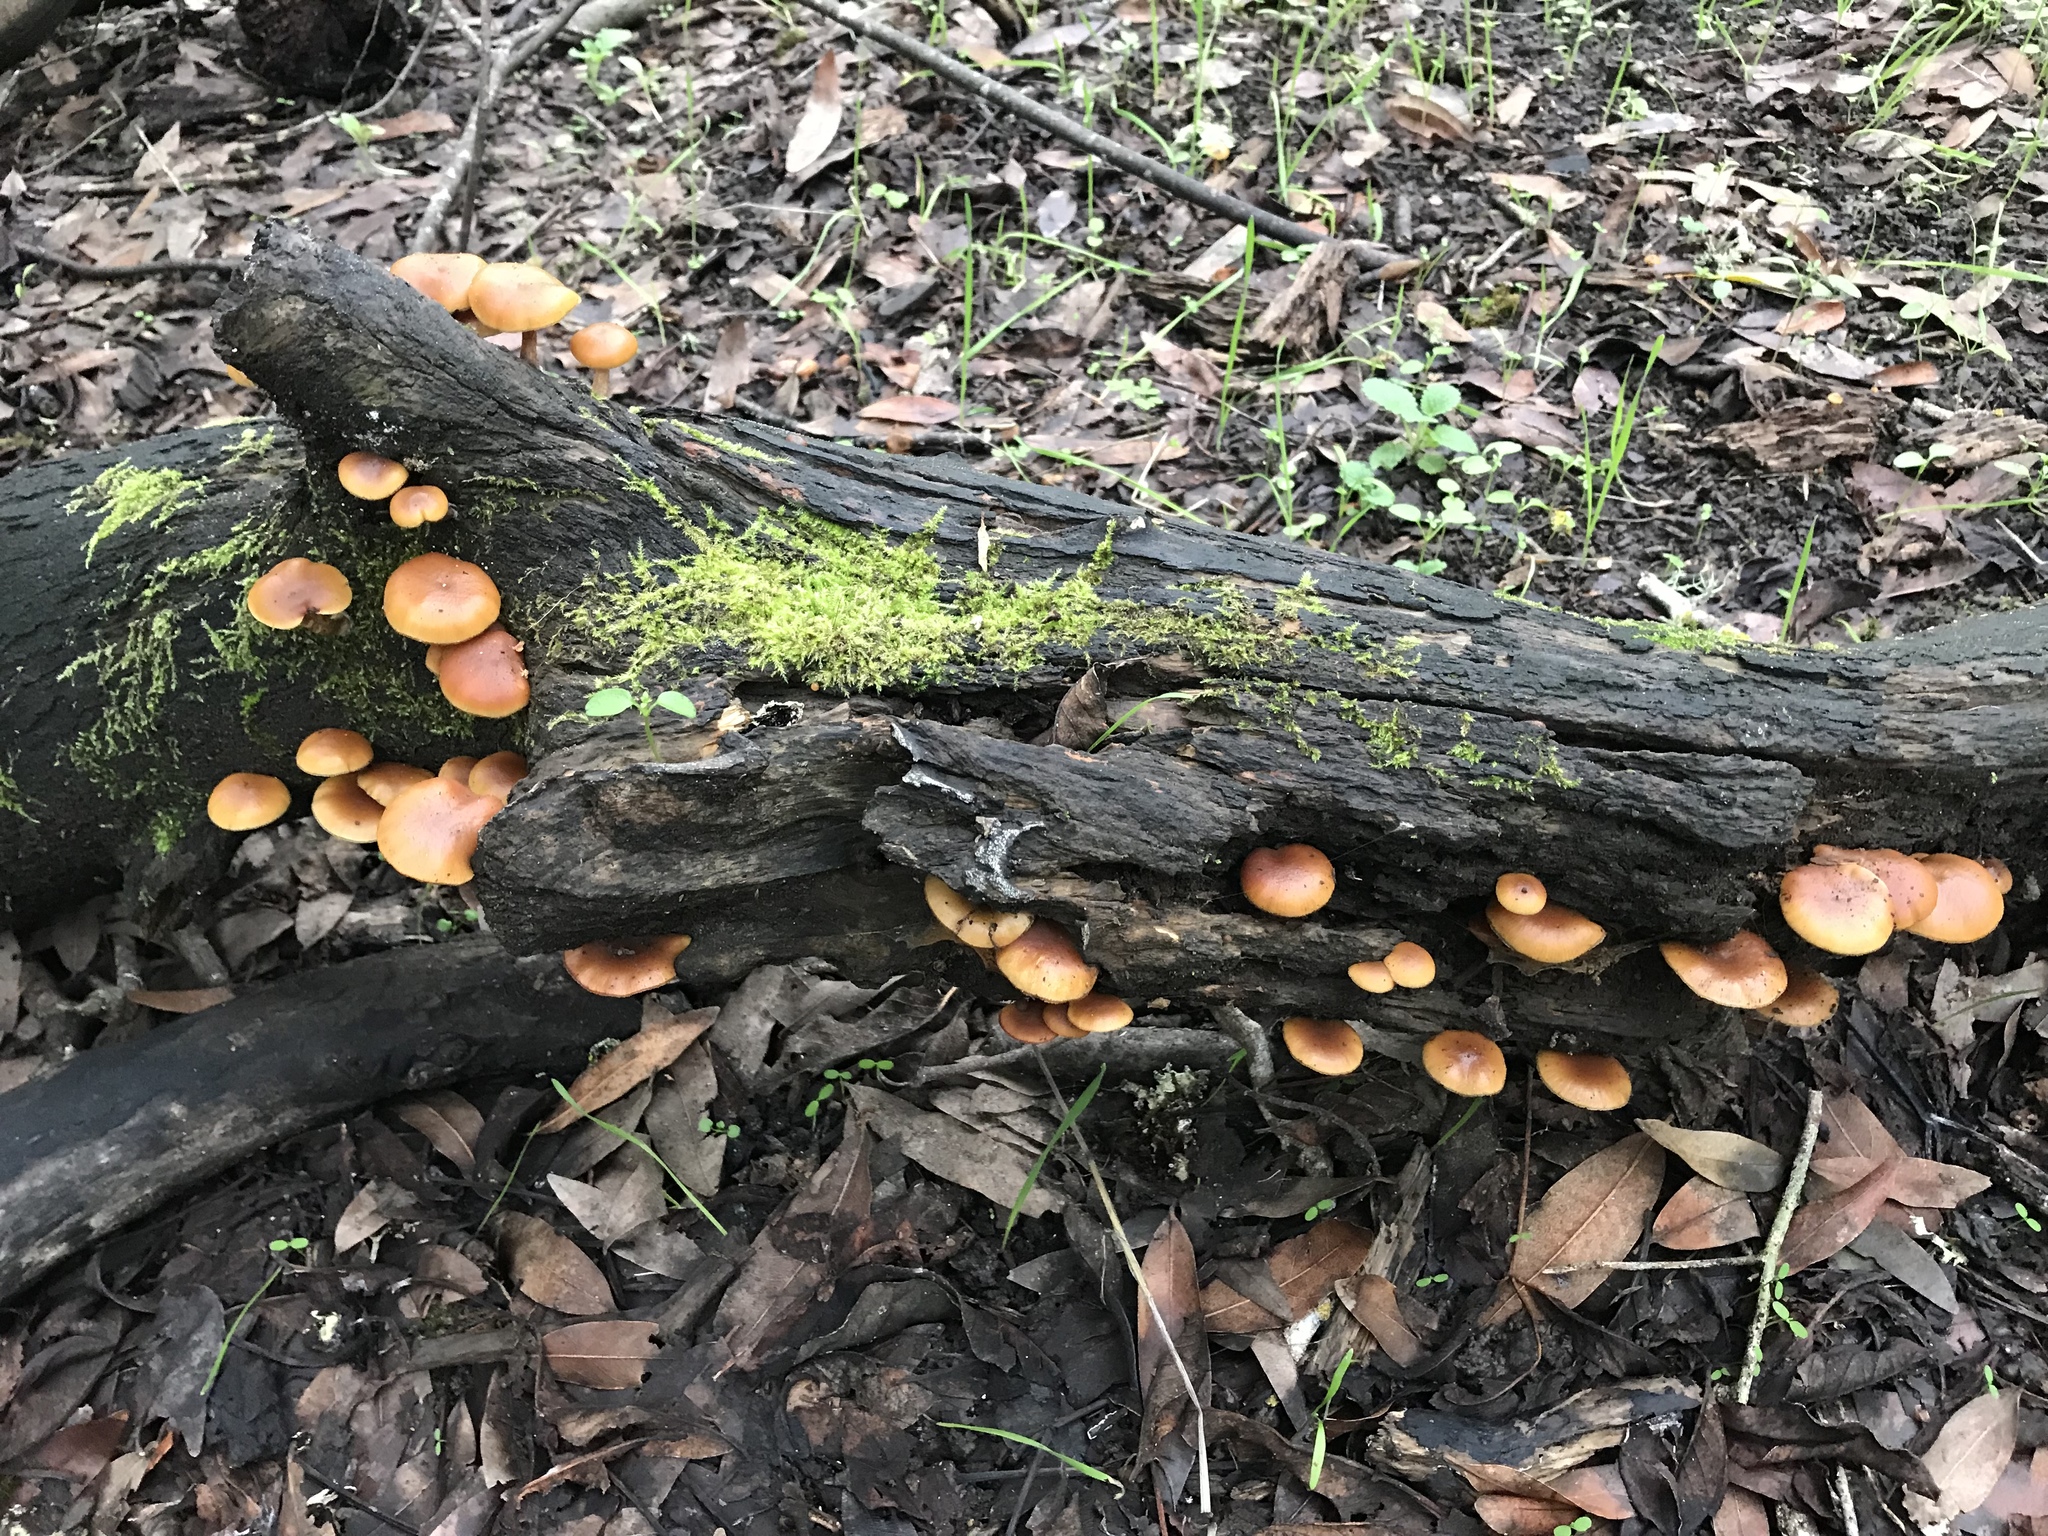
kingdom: Fungi
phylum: Basidiomycota
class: Agaricomycetes
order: Agaricales
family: Hymenogastraceae
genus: Galerina
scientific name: Galerina marginata
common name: Funeral bell
